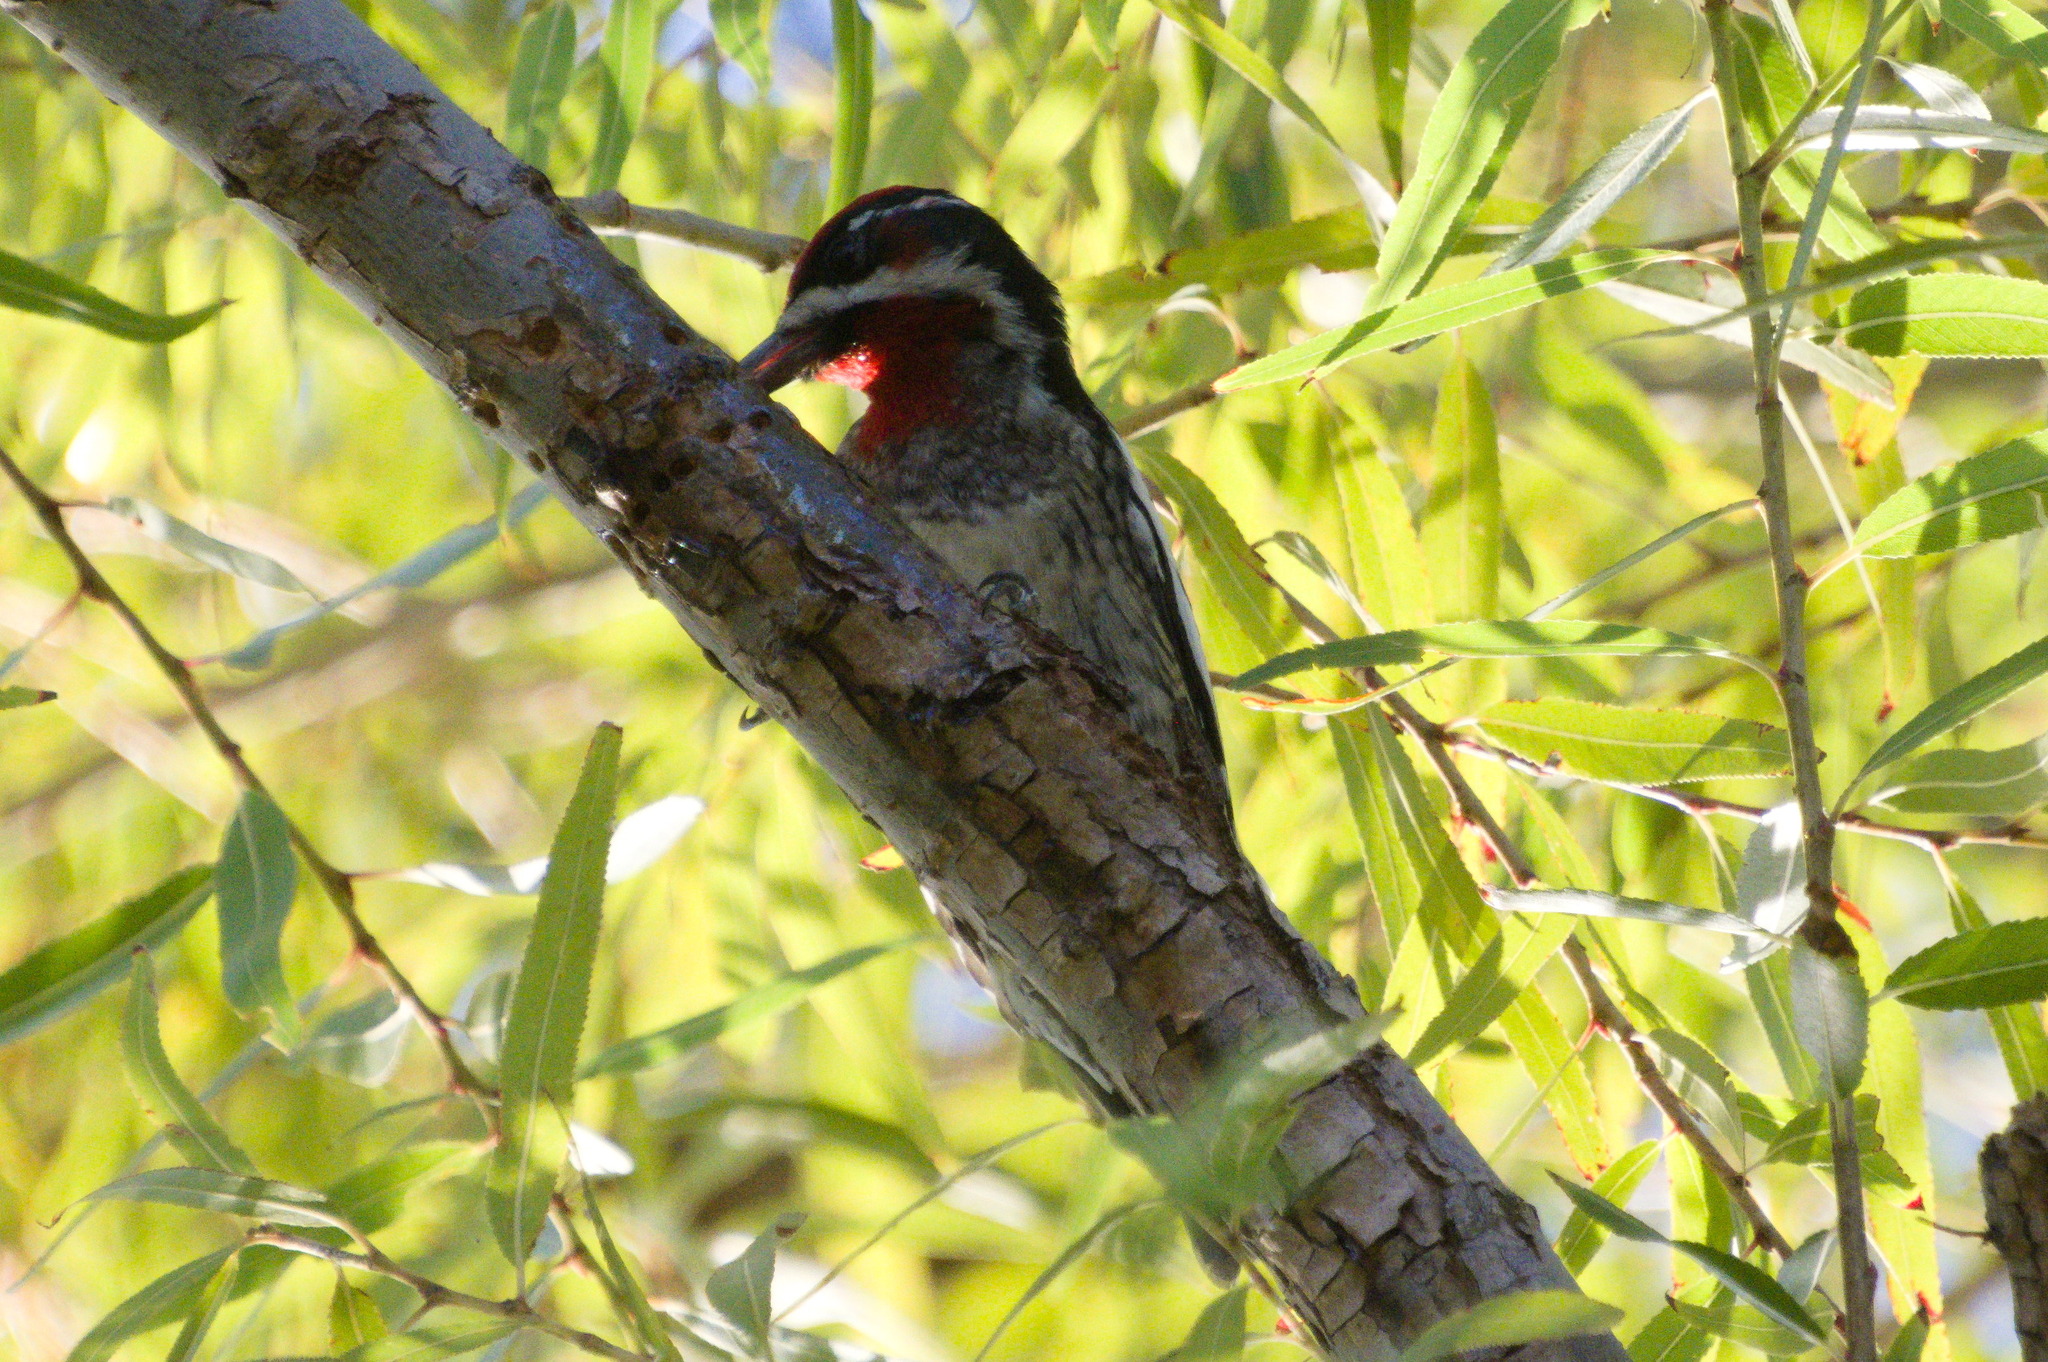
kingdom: Animalia
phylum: Chordata
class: Aves
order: Piciformes
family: Picidae
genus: Sphyrapicus
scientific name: Sphyrapicus nuchalis
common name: Red-naped sapsucker
